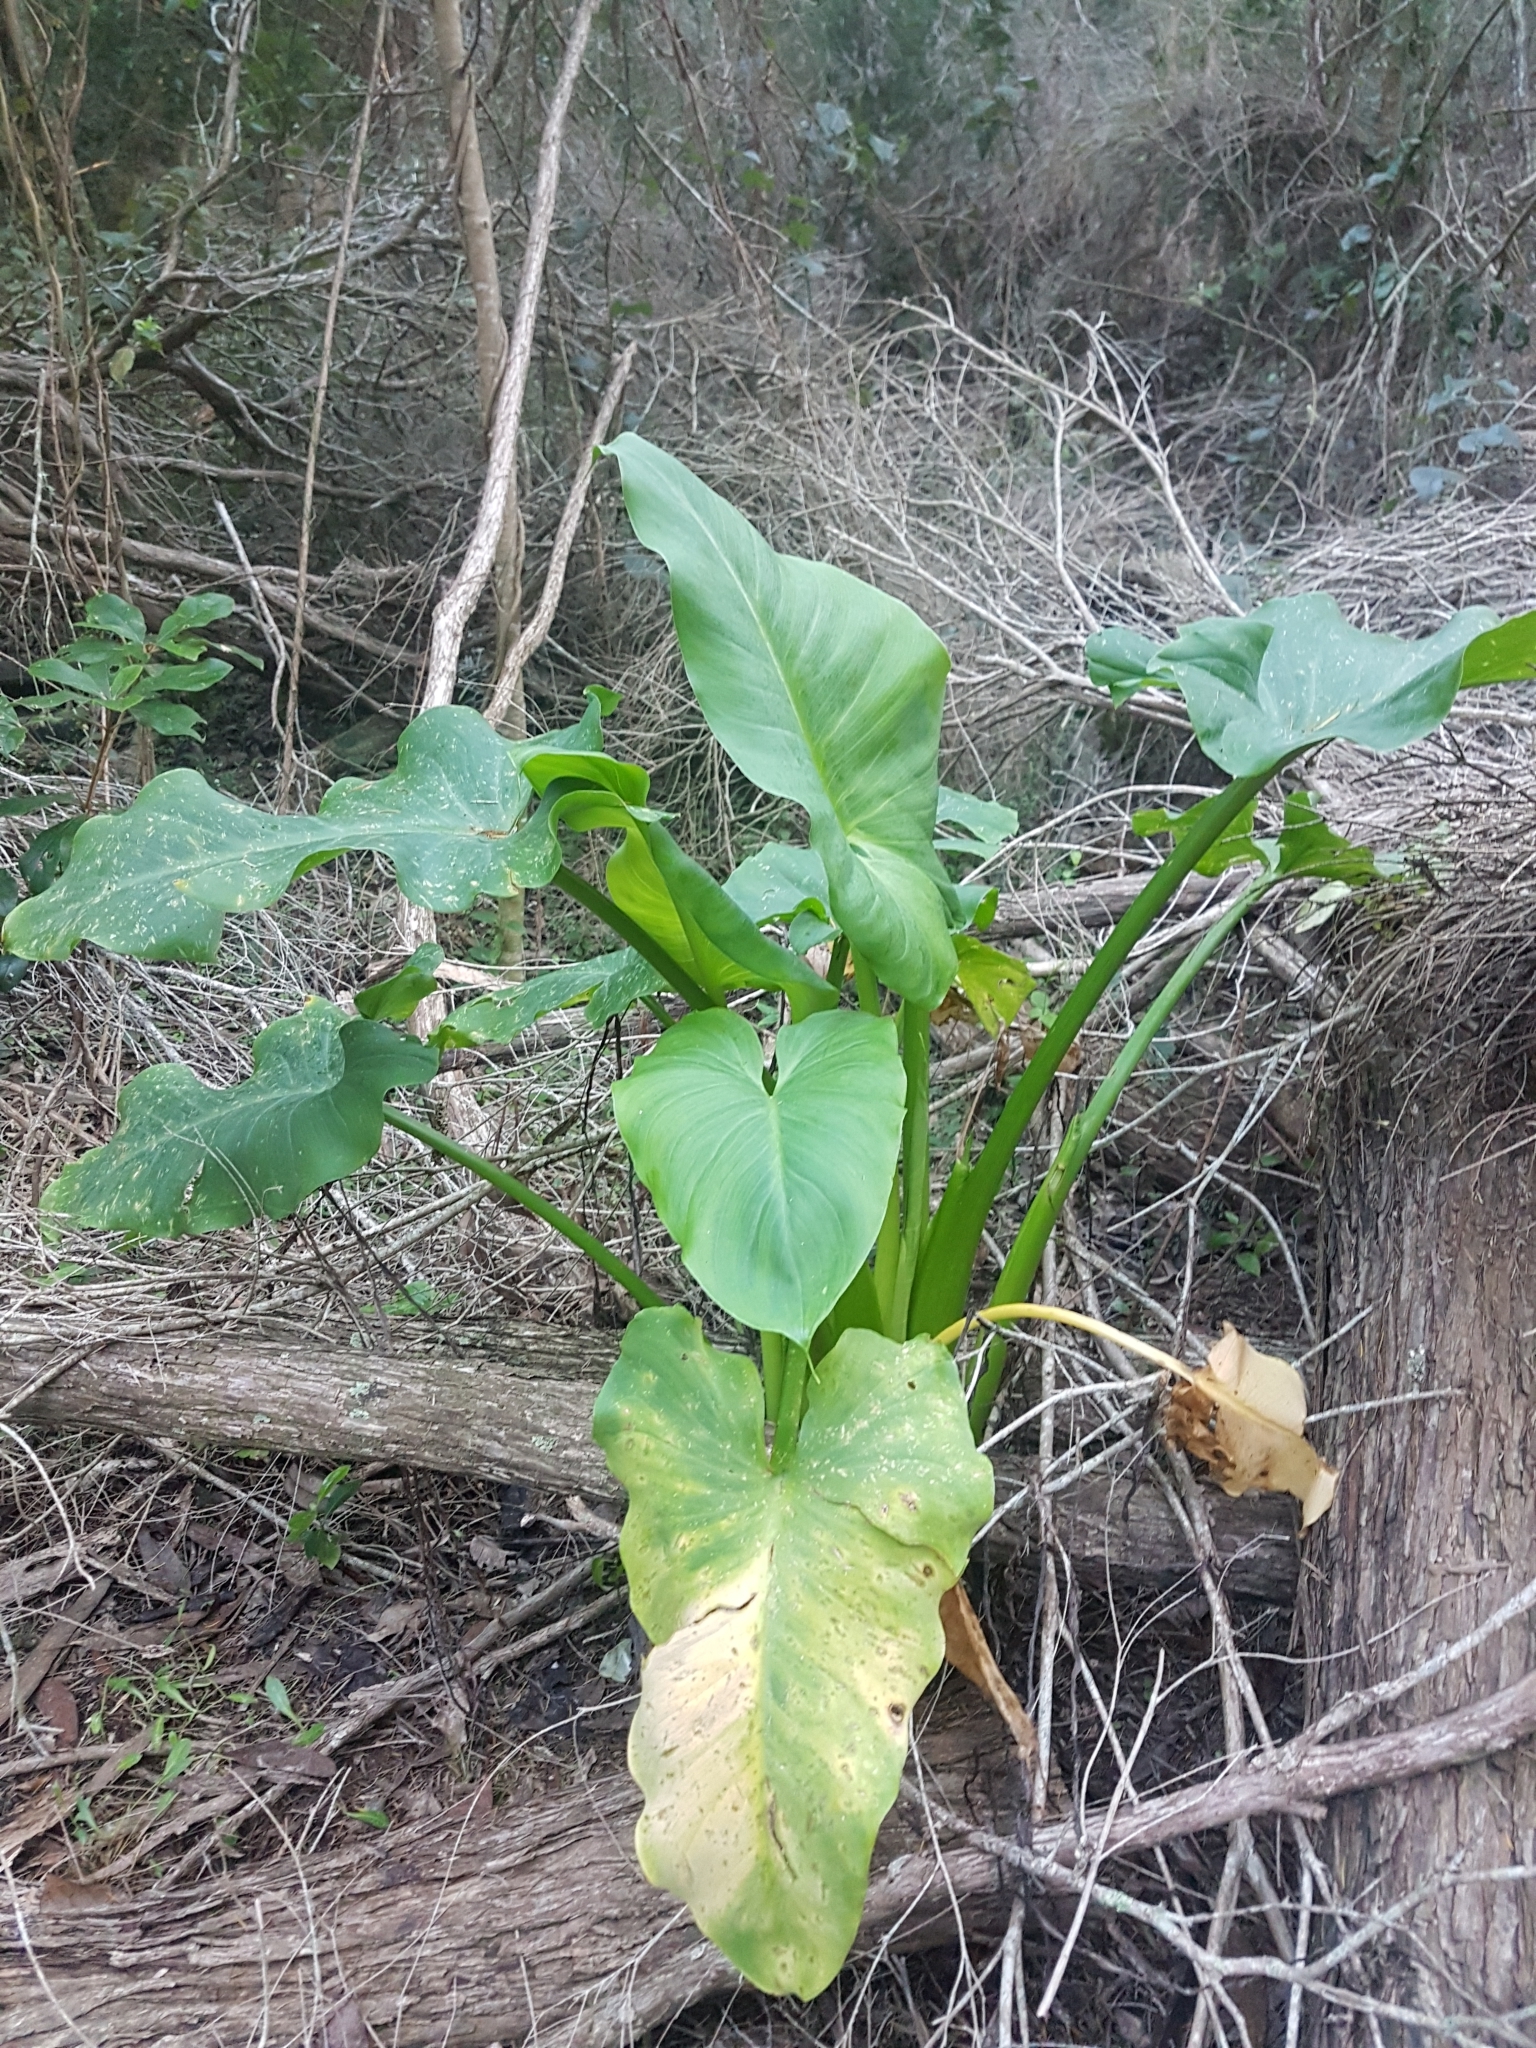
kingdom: Plantae
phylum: Tracheophyta
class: Liliopsida
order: Alismatales
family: Araceae
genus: Zantedeschia
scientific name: Zantedeschia aethiopica
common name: Altar-lily
